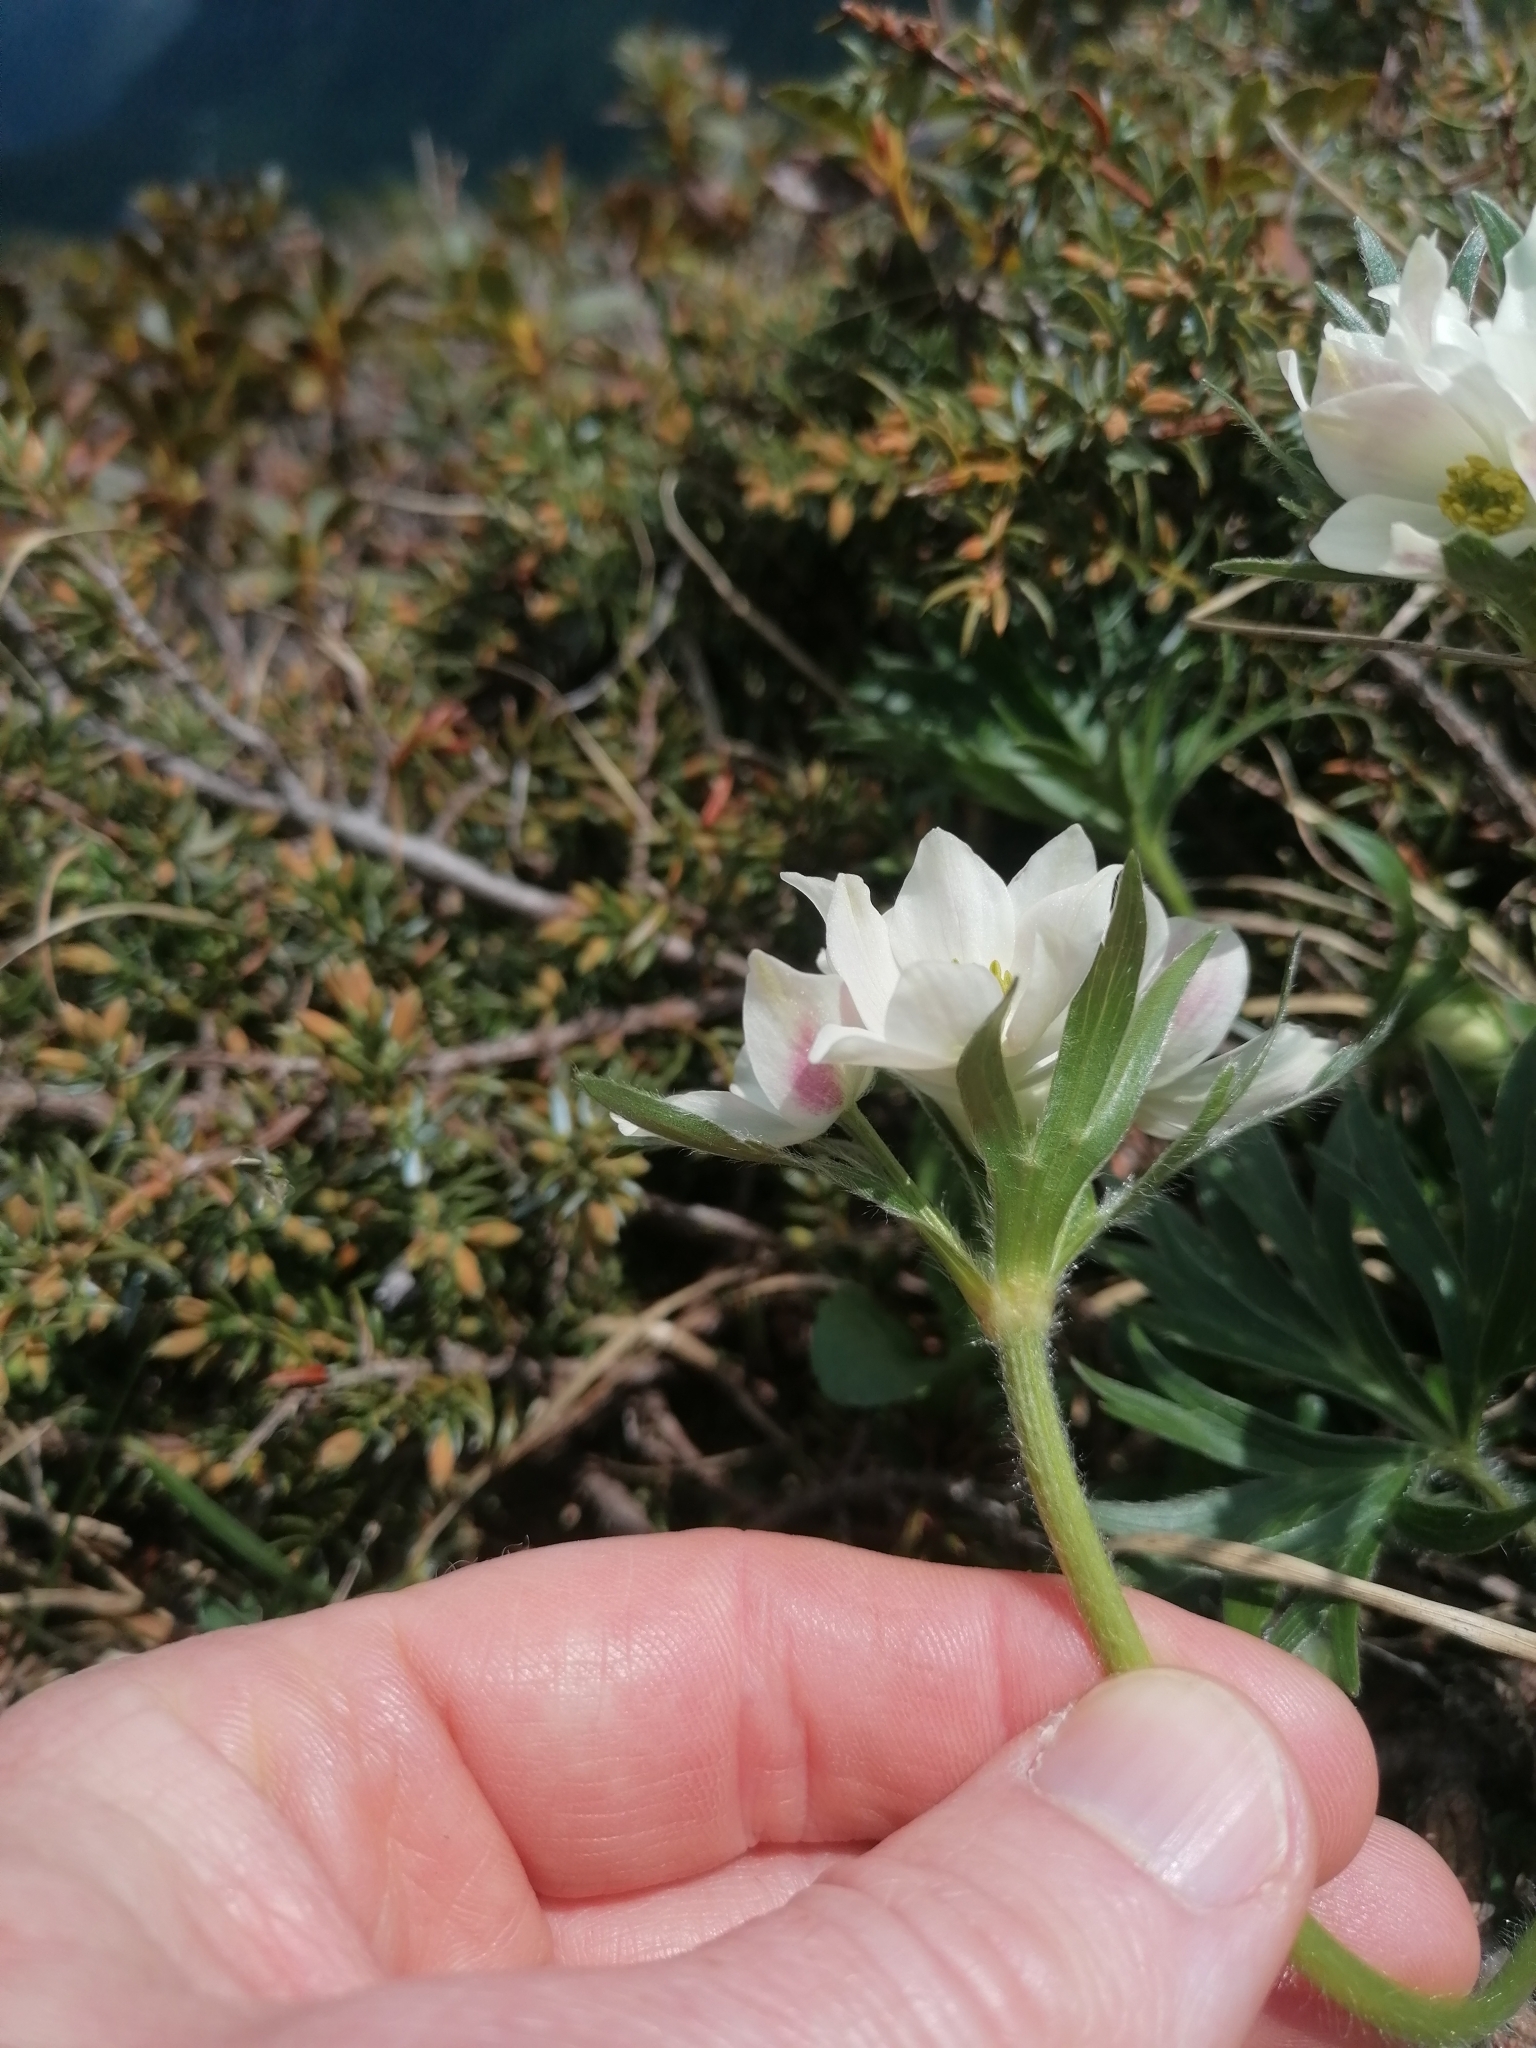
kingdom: Plantae
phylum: Tracheophyta
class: Magnoliopsida
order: Ranunculales
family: Ranunculaceae
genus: Anemonastrum
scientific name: Anemonastrum narcissiflorum
